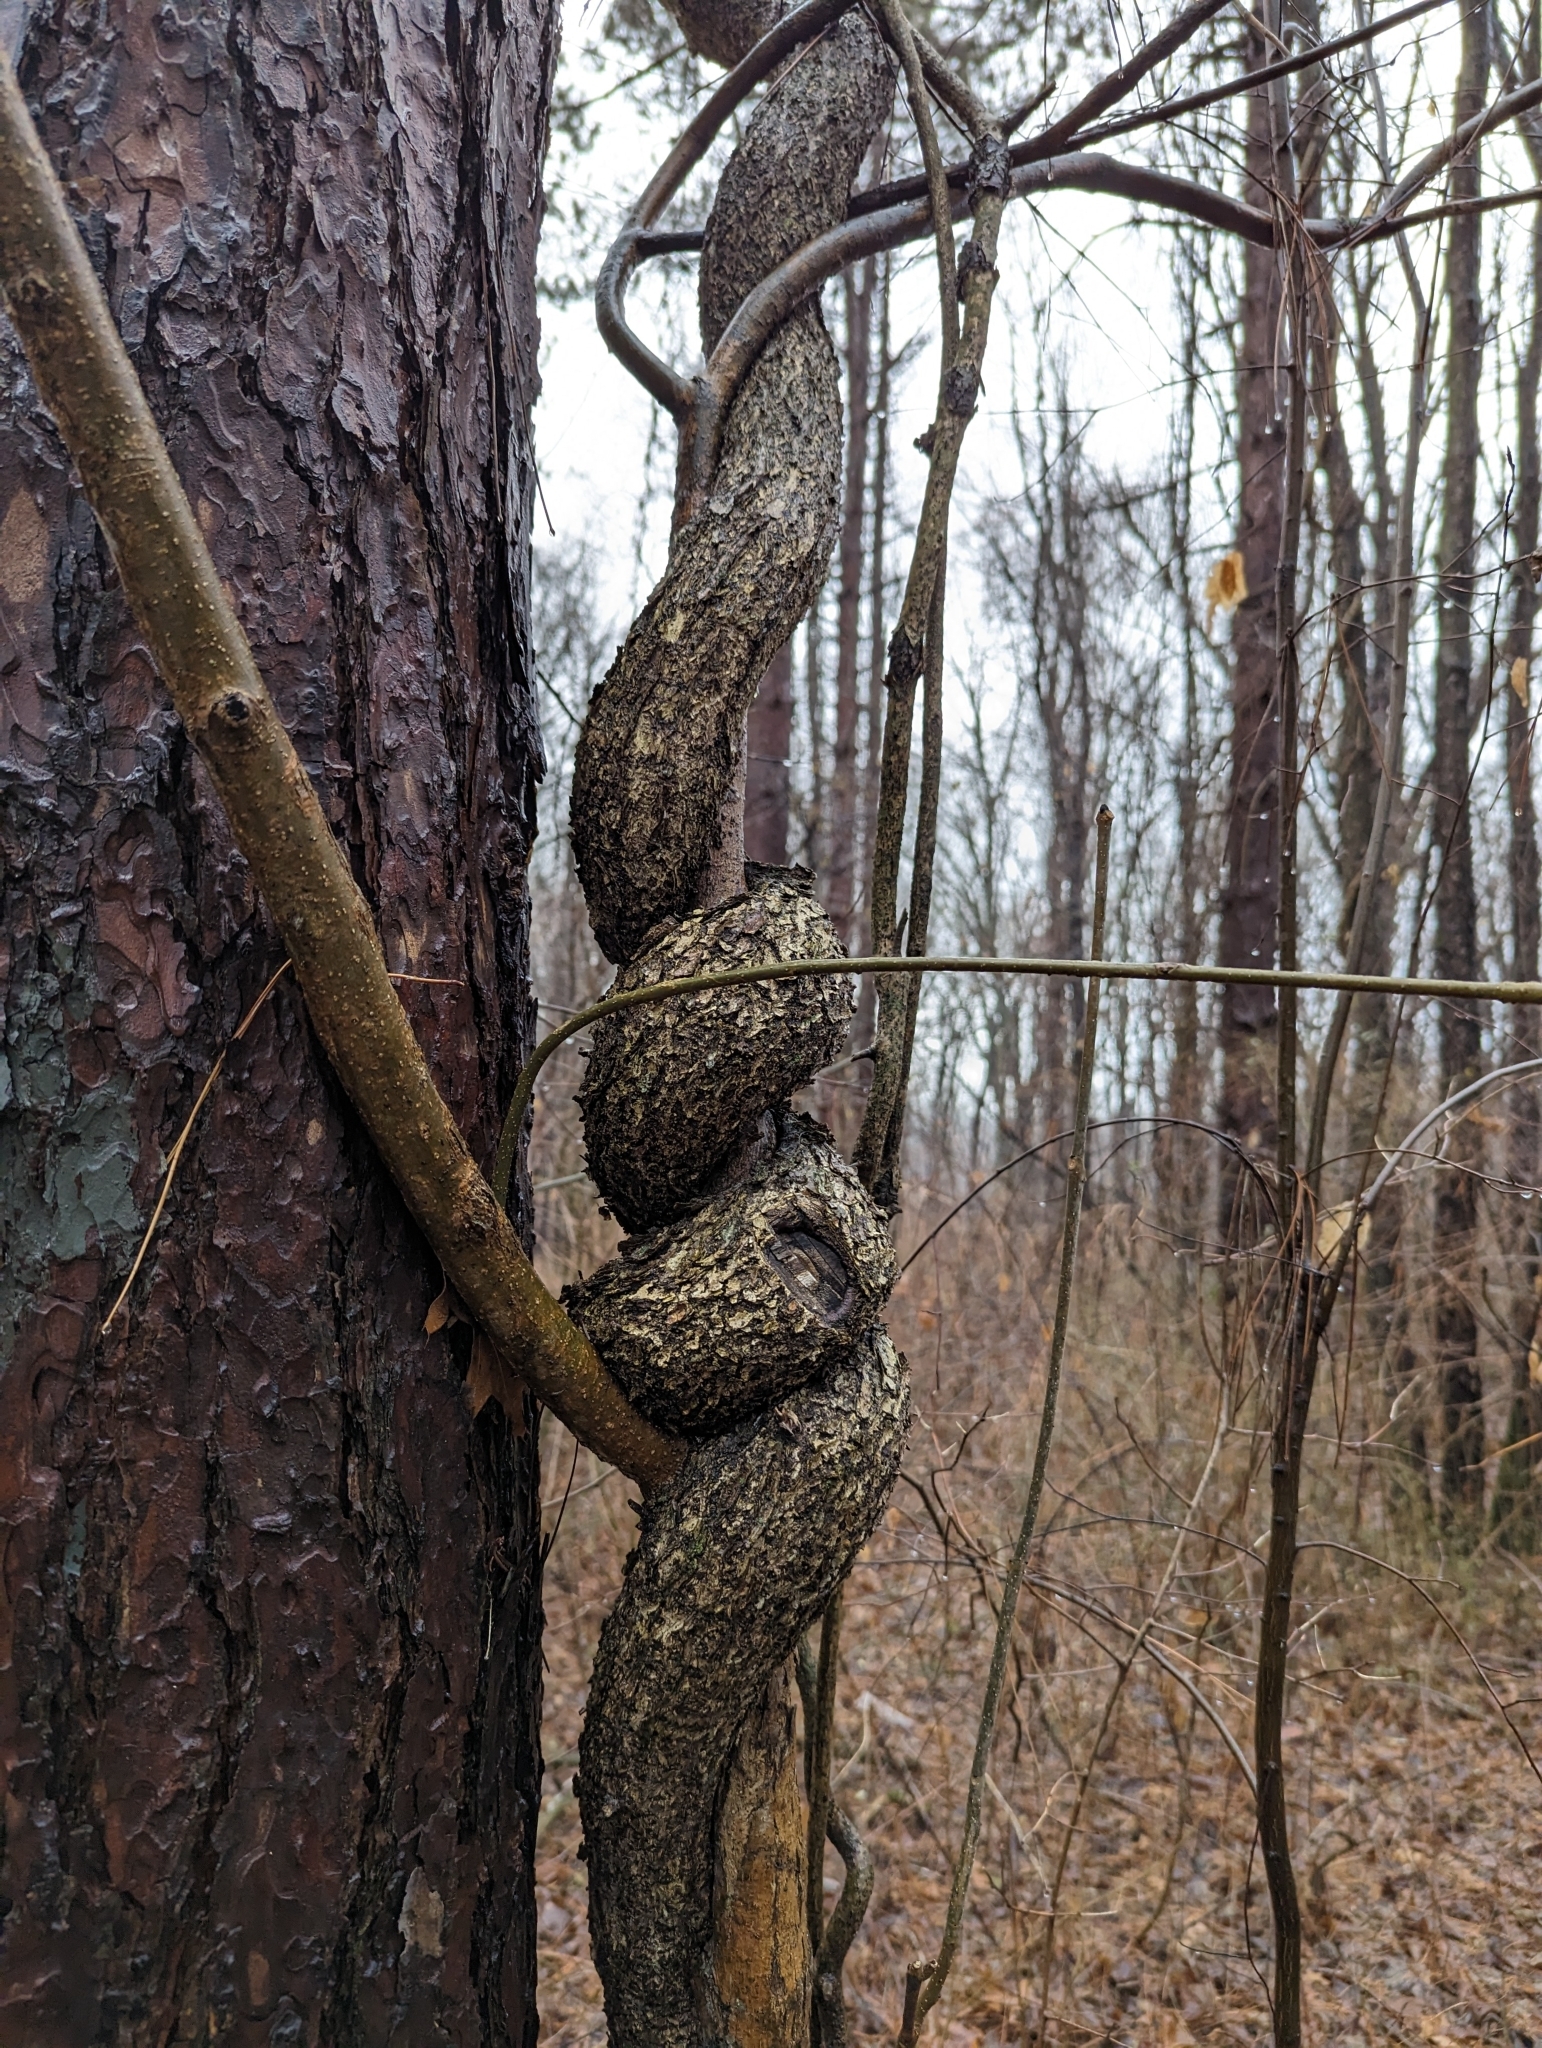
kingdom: Plantae
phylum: Tracheophyta
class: Magnoliopsida
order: Celastrales
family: Celastraceae
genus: Celastrus
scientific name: Celastrus orbiculatus
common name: Oriental bittersweet
